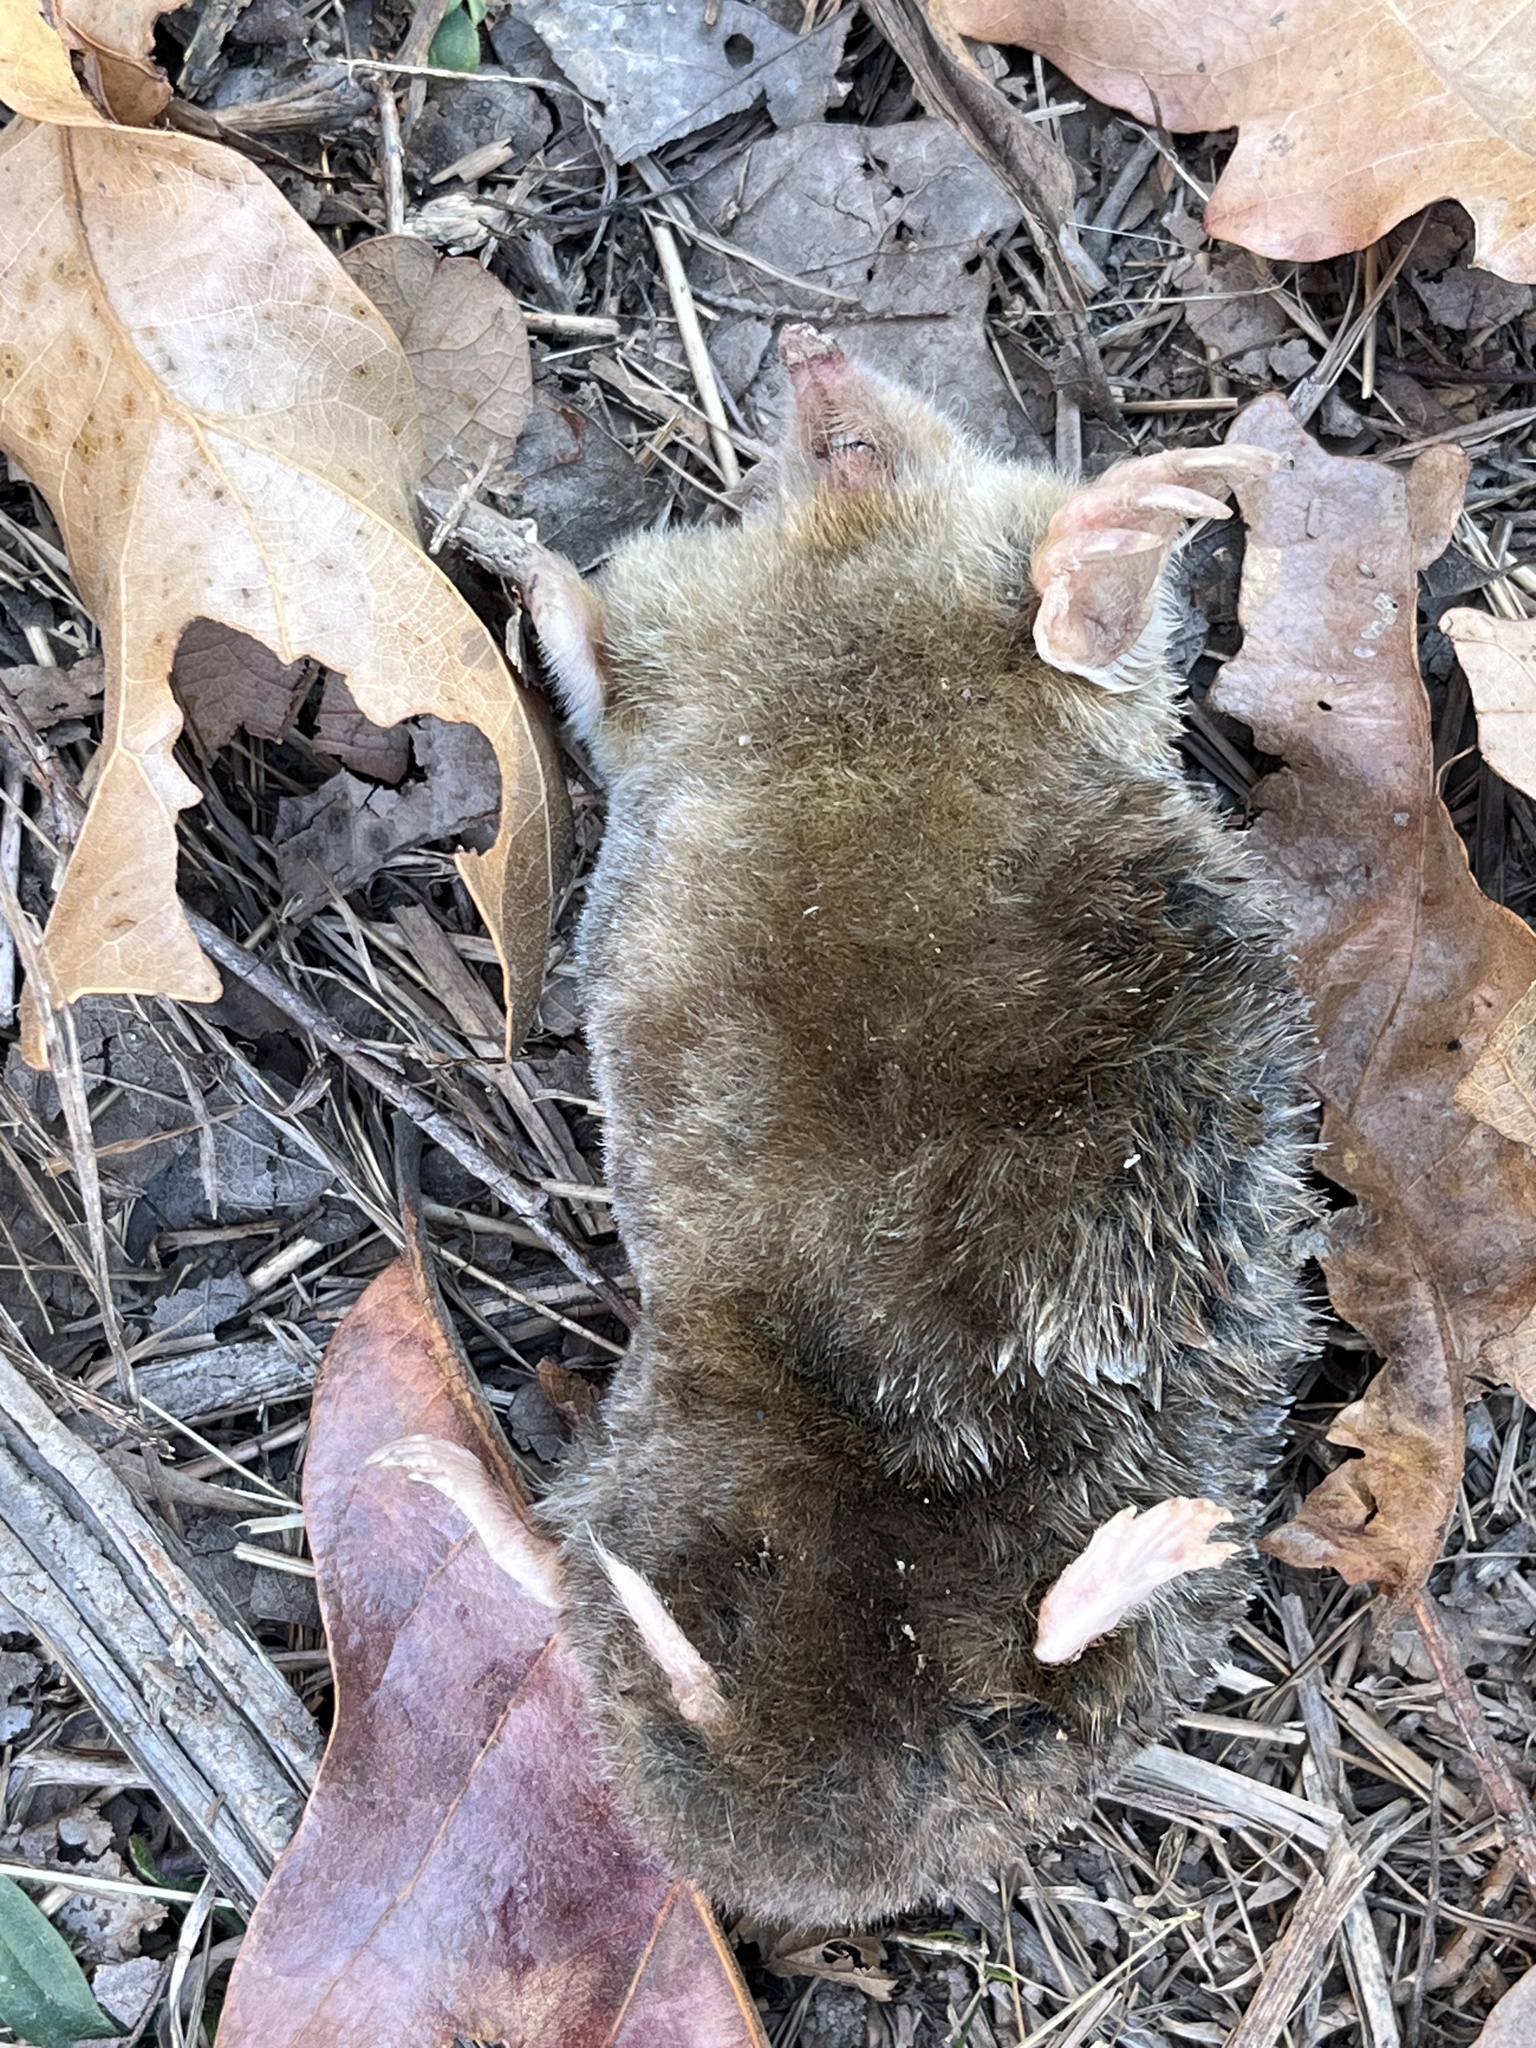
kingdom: Animalia
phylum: Chordata
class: Mammalia
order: Soricomorpha
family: Talpidae
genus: Scalopus
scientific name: Scalopus aquaticus
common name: Eastern mole
